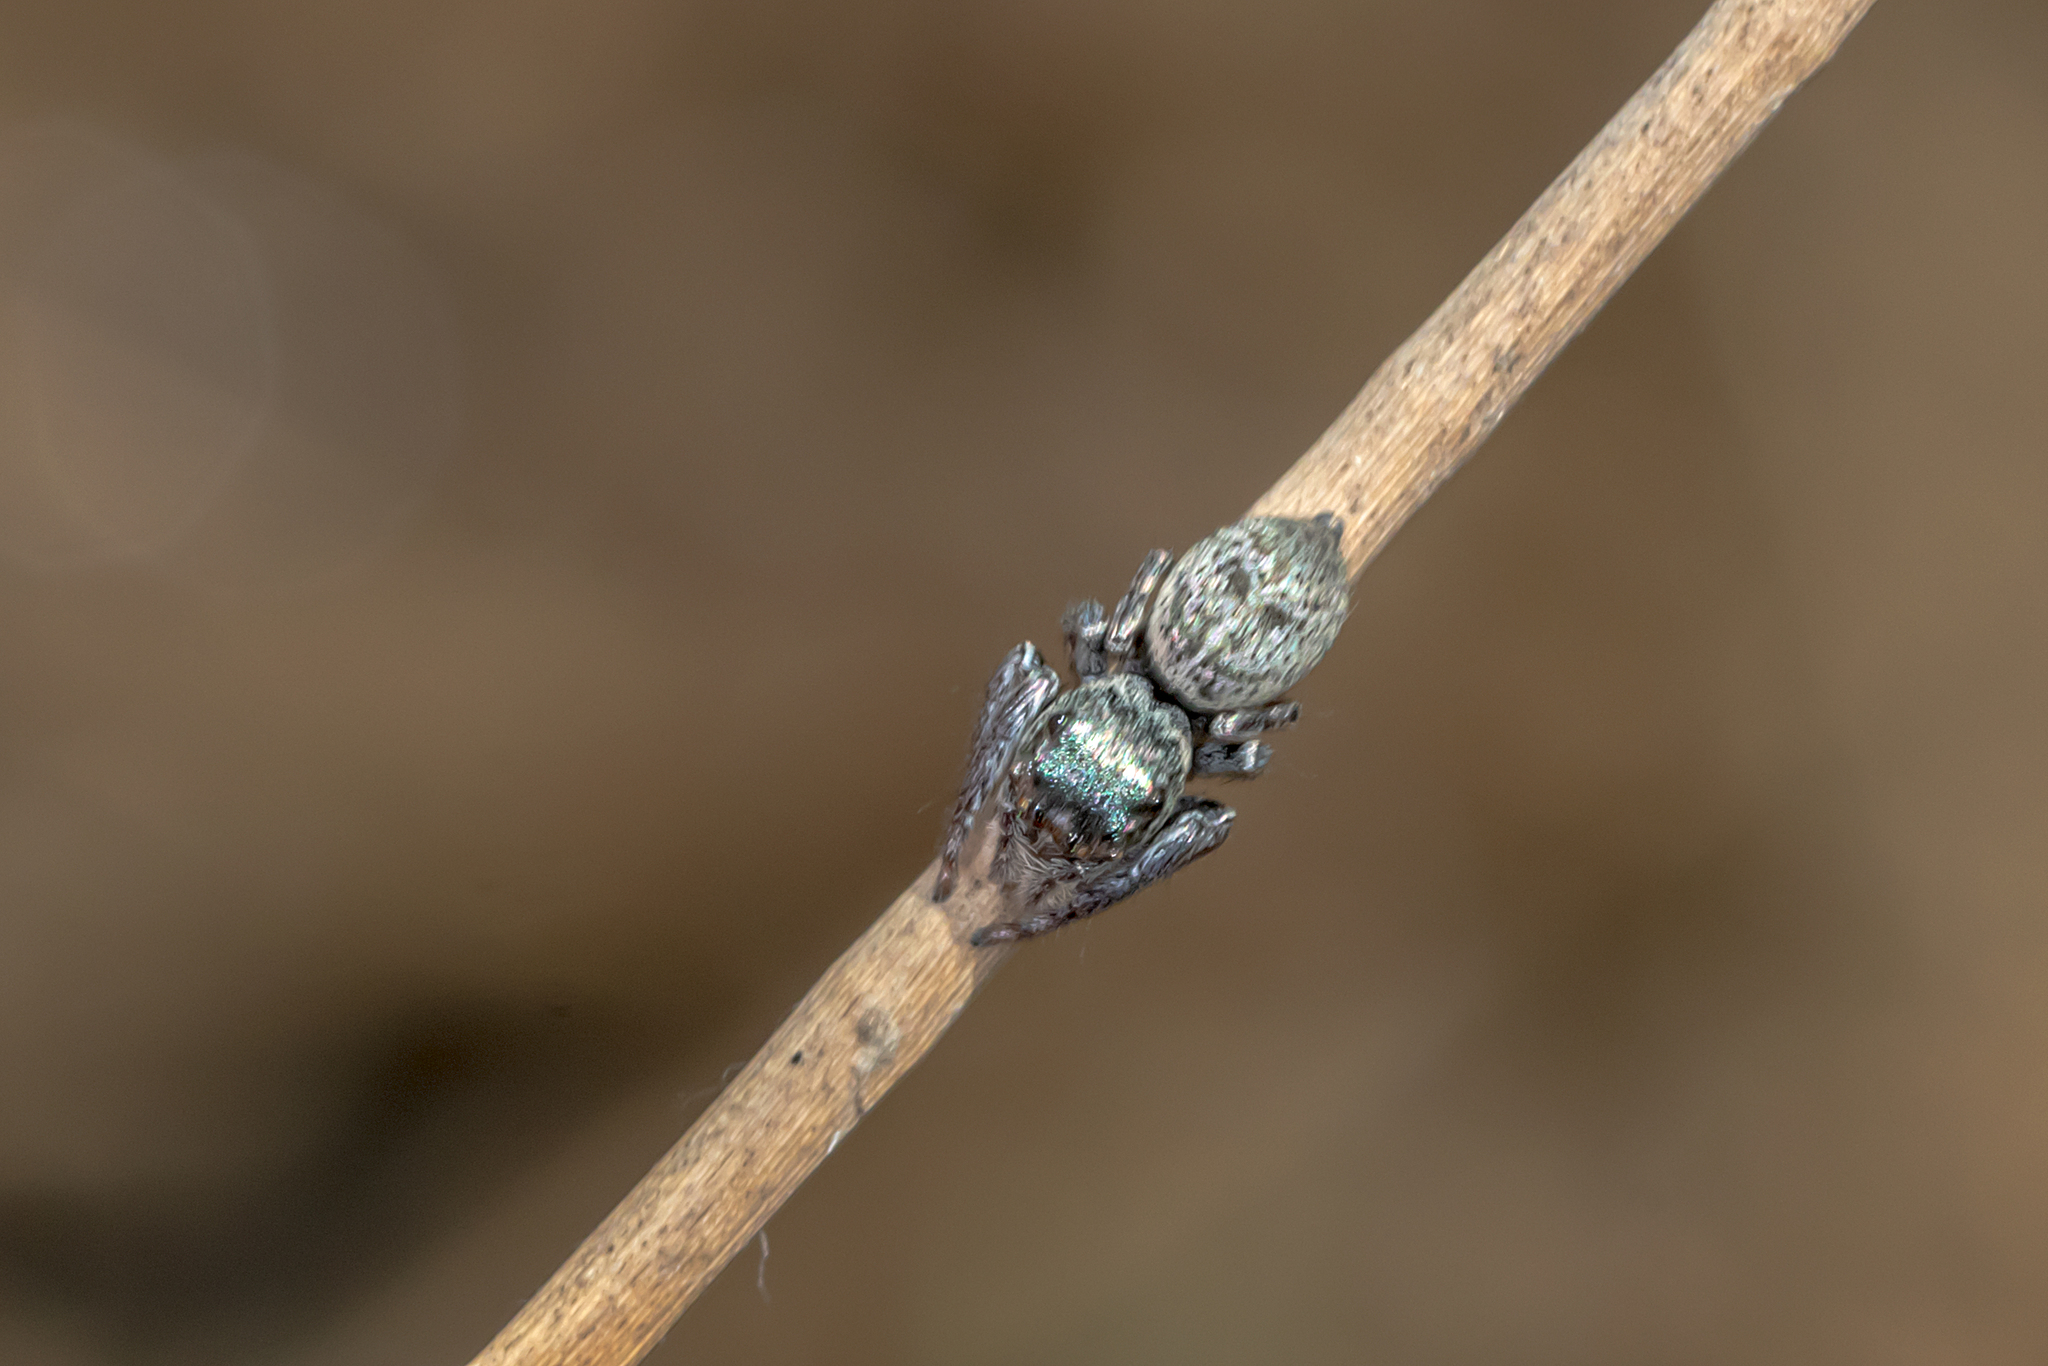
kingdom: Animalia
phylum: Arthropoda
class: Arachnida
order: Araneae
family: Salticidae
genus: Euryattus
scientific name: Euryattus bleekeri
